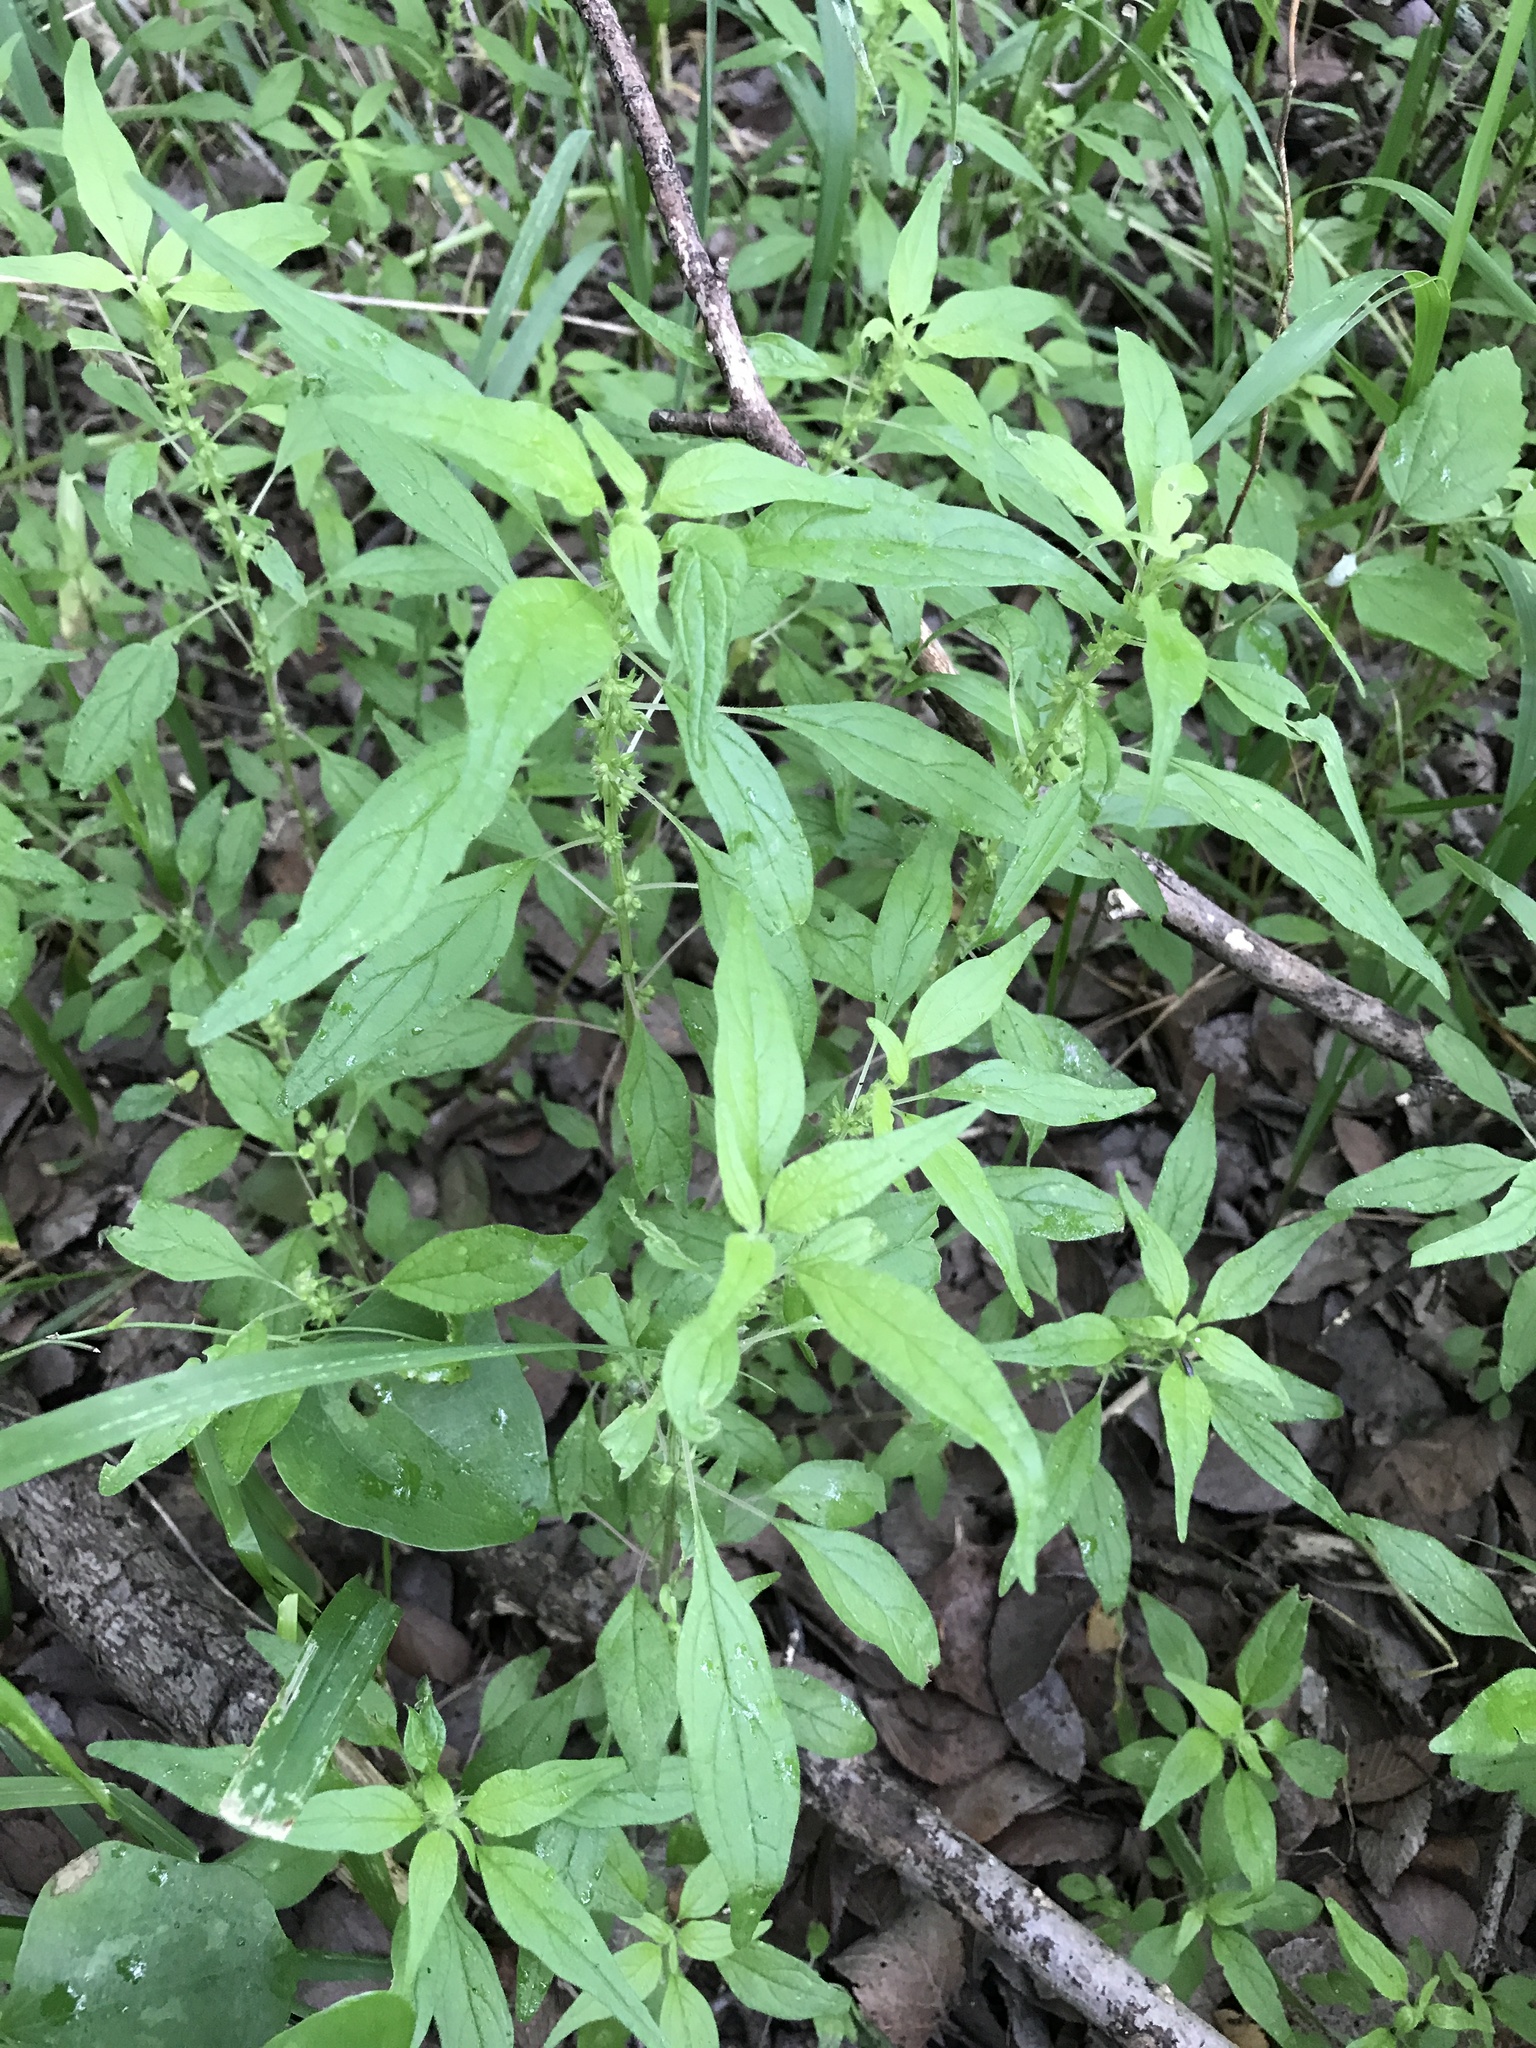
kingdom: Plantae
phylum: Tracheophyta
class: Magnoliopsida
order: Rosales
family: Urticaceae
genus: Parietaria
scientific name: Parietaria pensylvanica
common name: Pennsylvania pellitory
